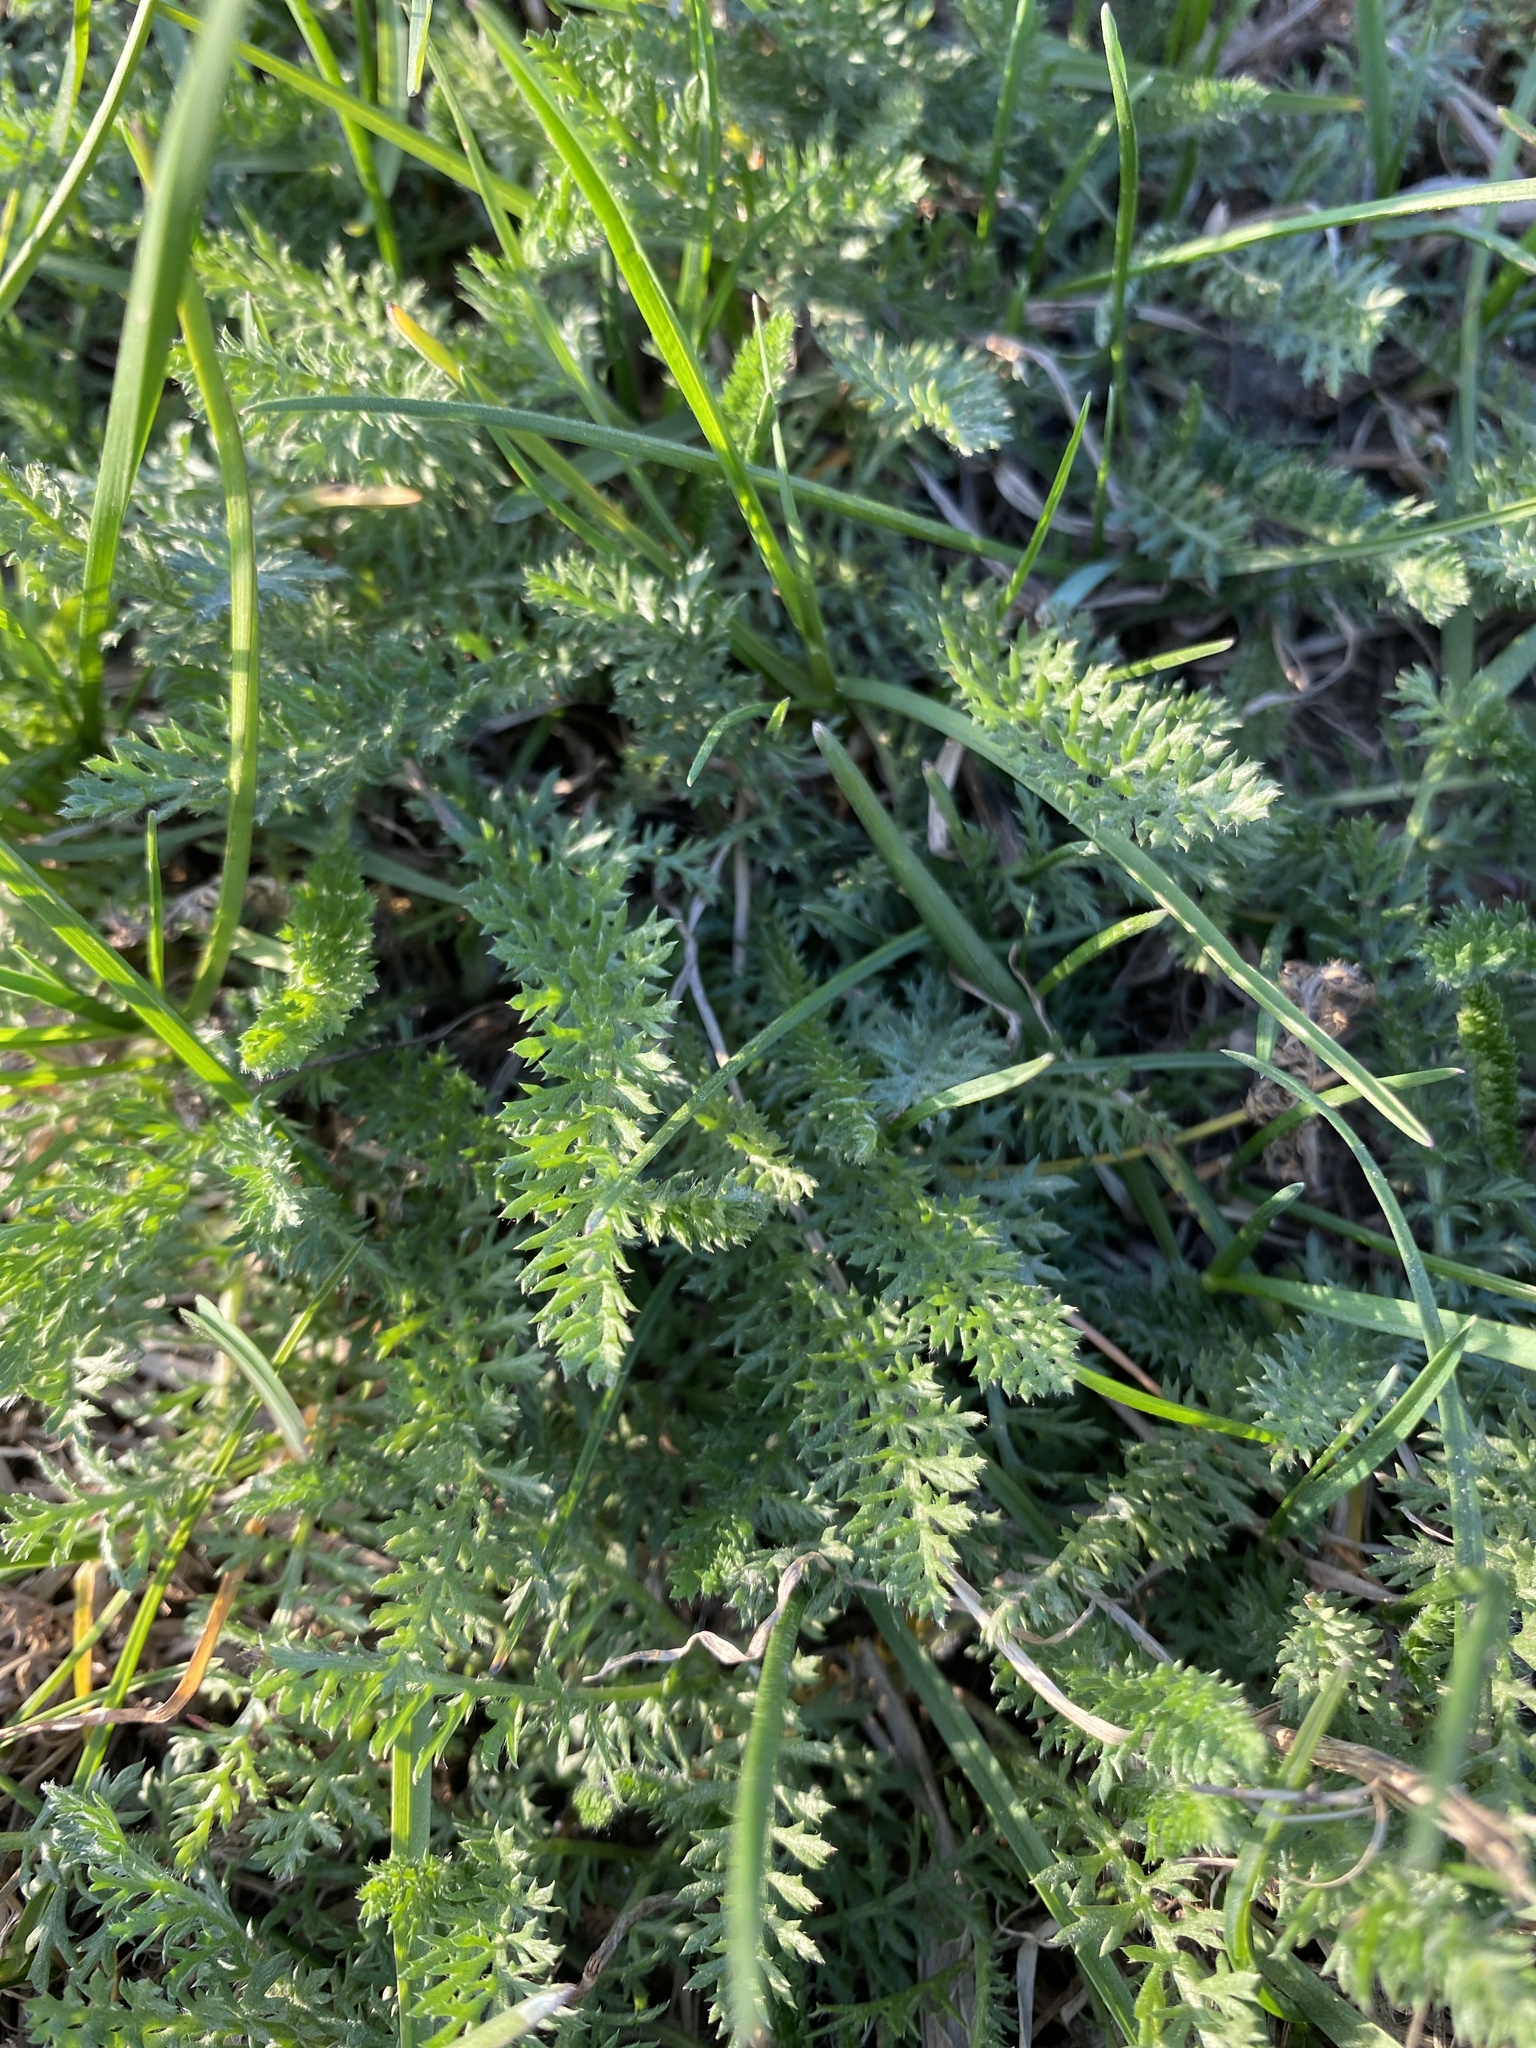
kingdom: Plantae
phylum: Tracheophyta
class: Magnoliopsida
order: Asterales
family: Asteraceae
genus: Achillea
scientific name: Achillea millefolium
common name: Yarrow
